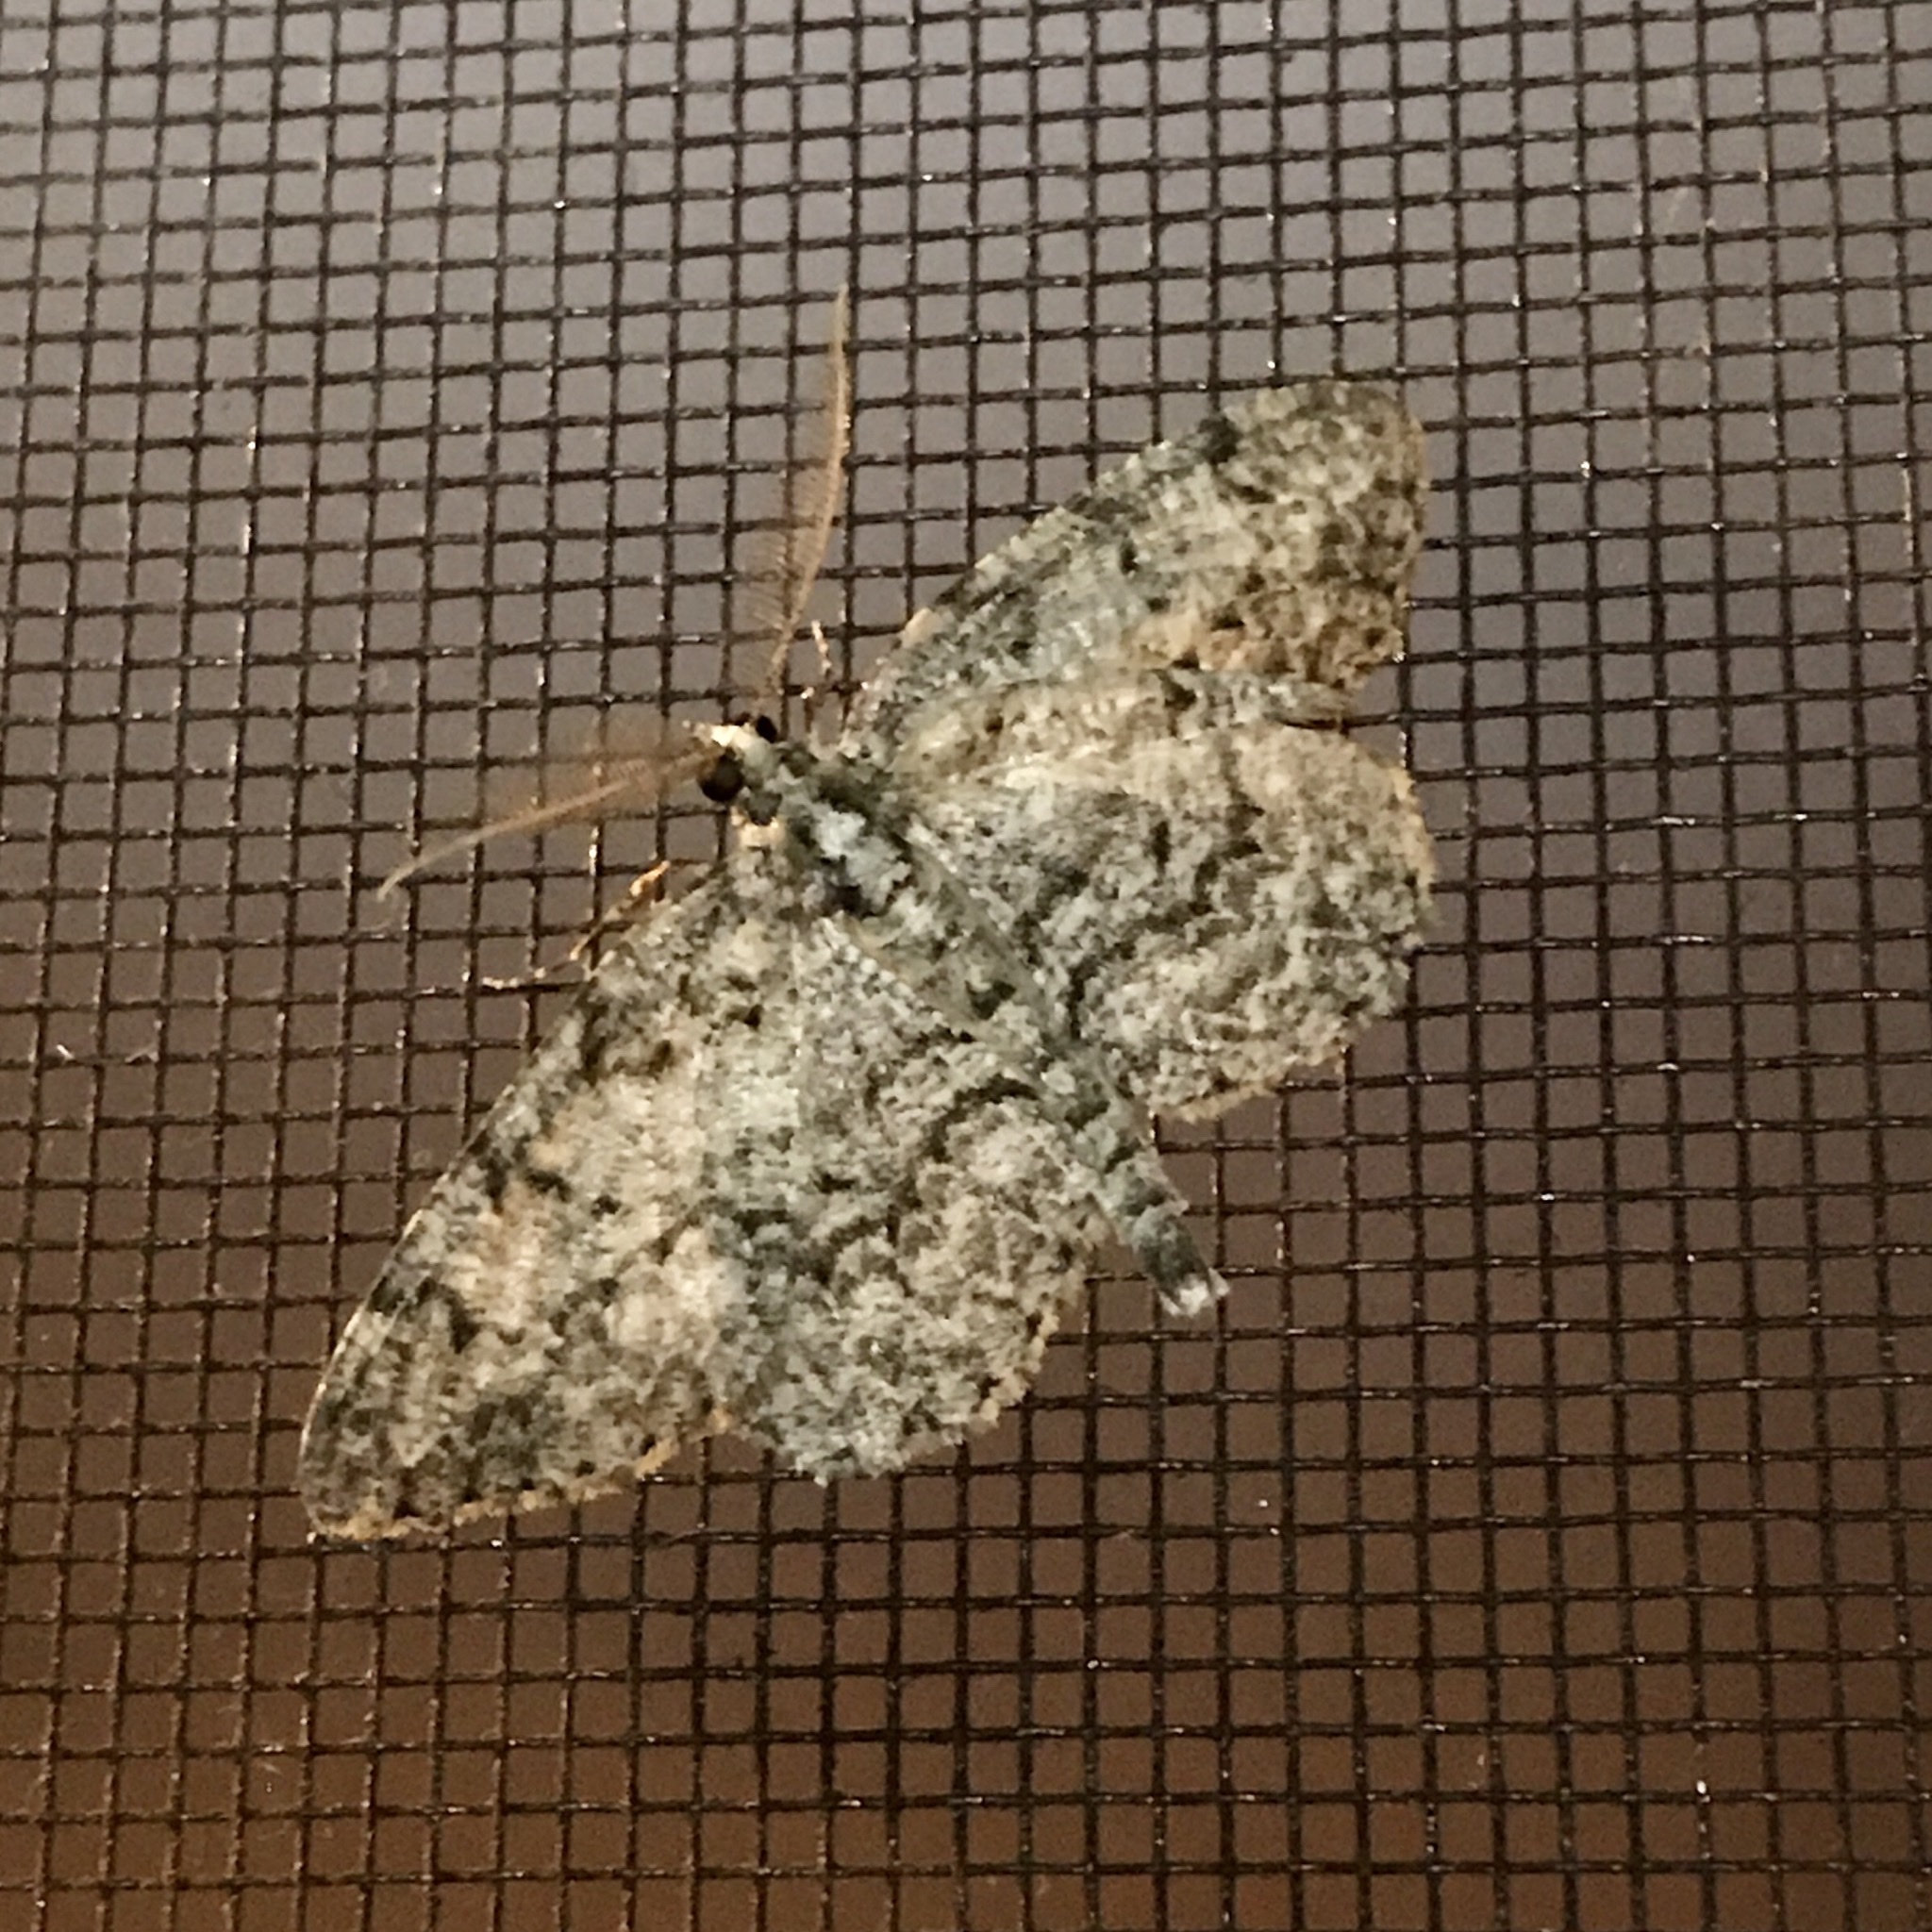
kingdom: Animalia
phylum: Arthropoda
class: Insecta
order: Lepidoptera
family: Geometridae
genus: Protoboarmia
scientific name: Protoboarmia porcelaria
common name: Porcelain gray
